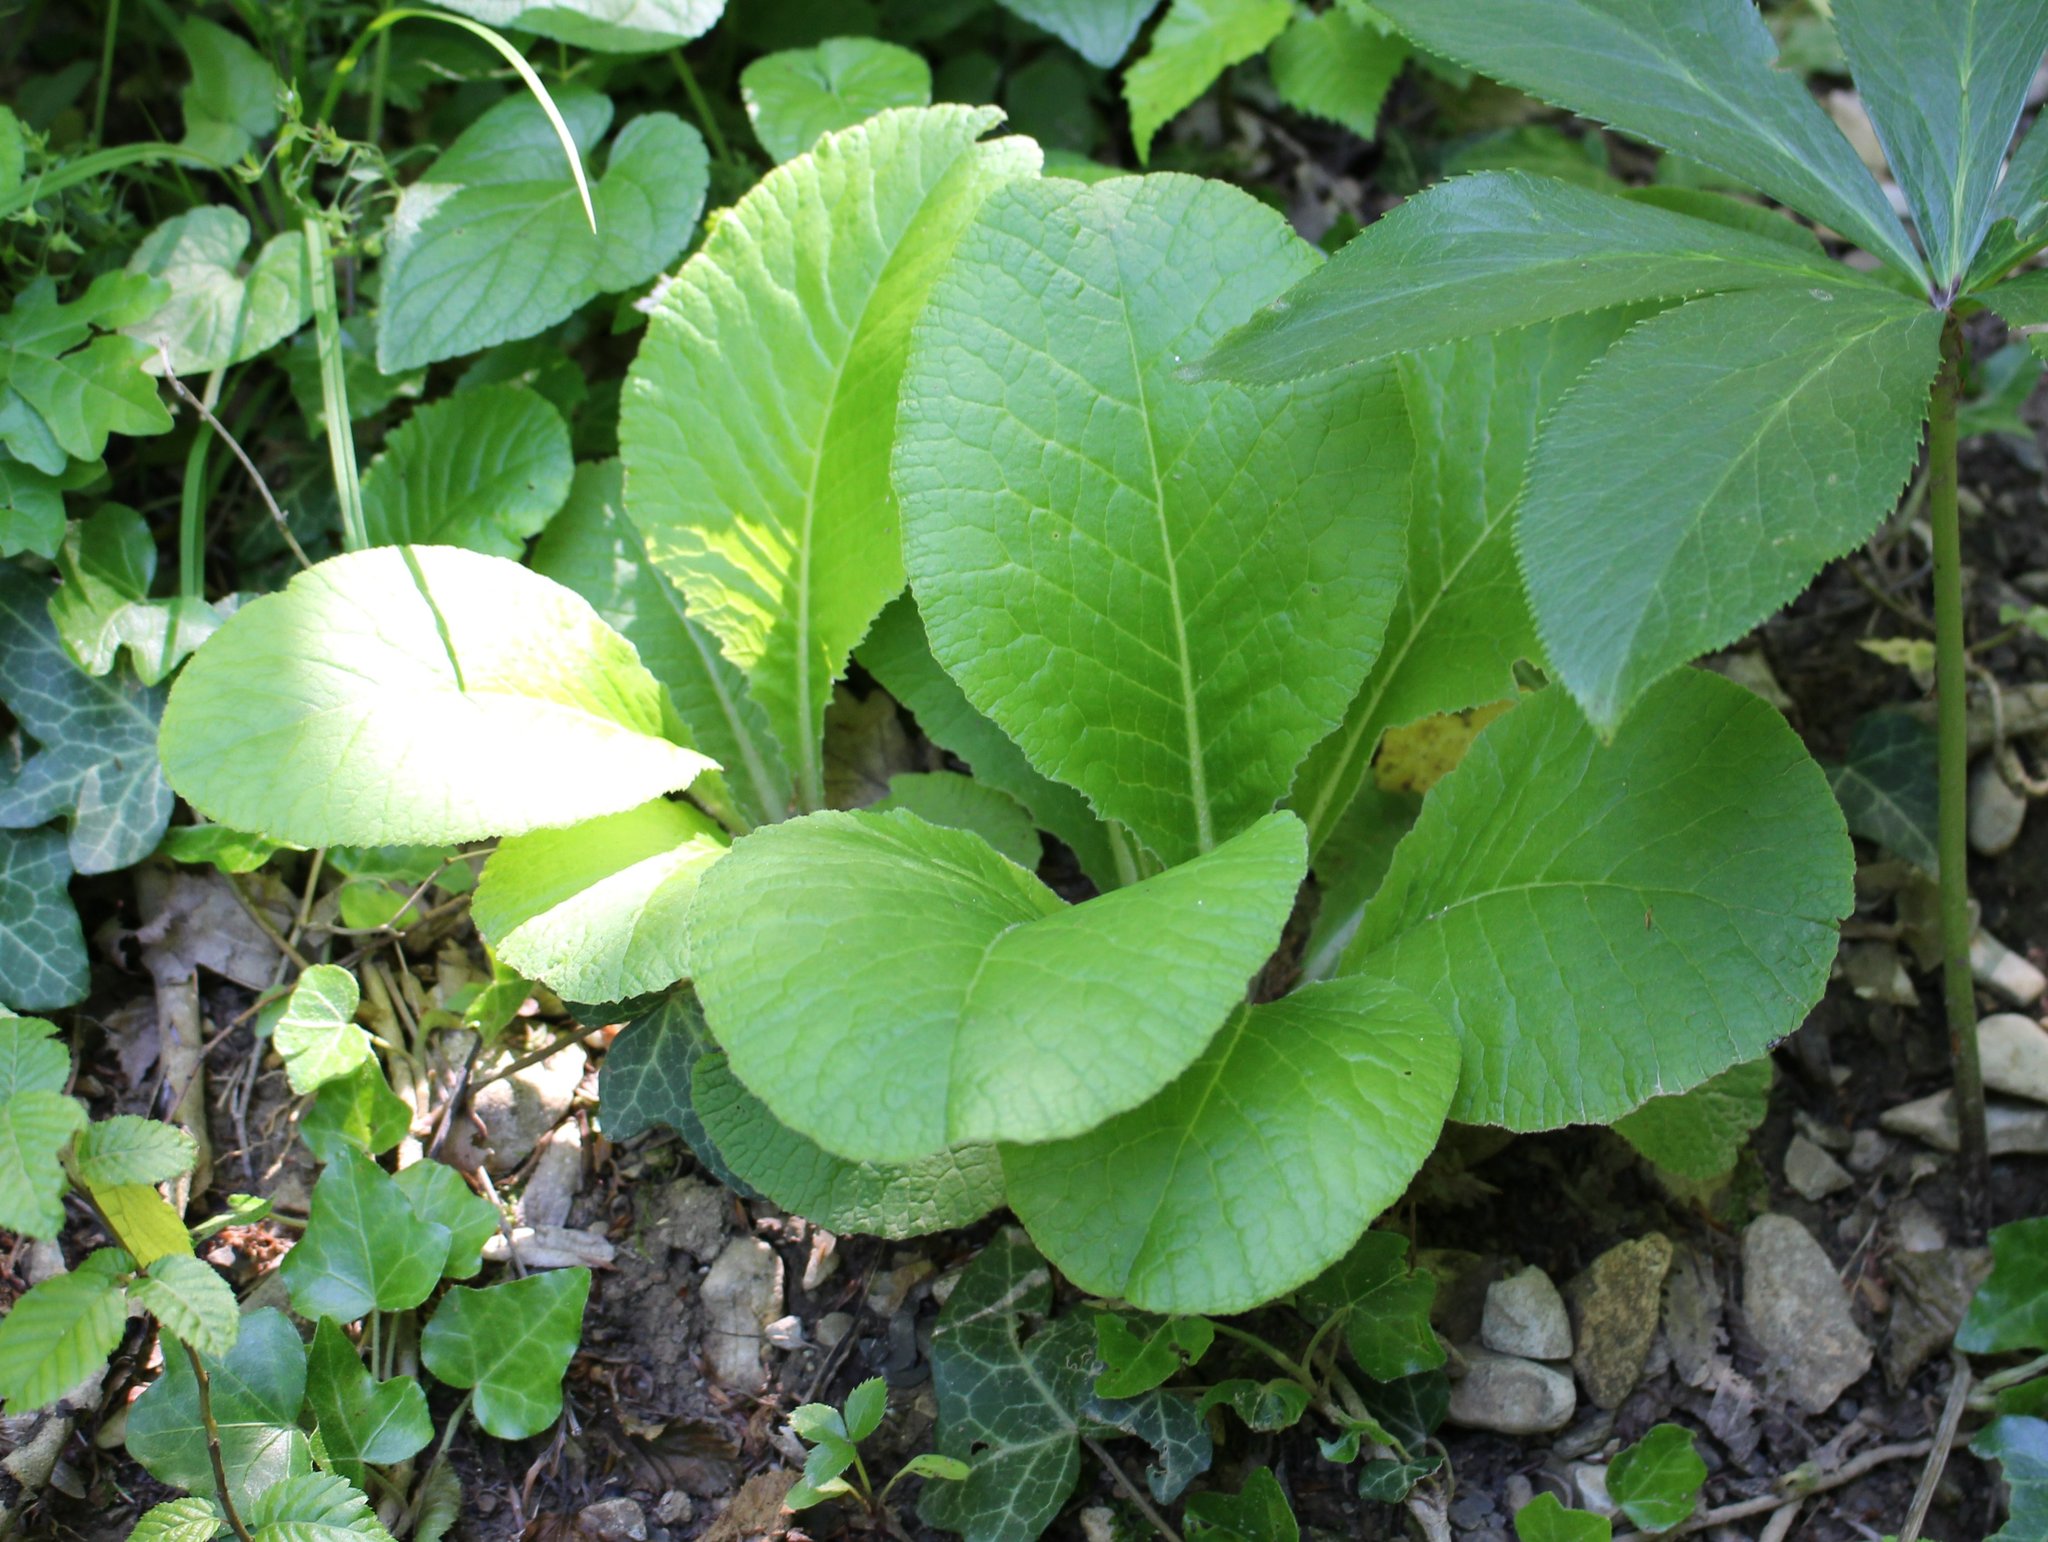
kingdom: Plantae
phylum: Tracheophyta
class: Magnoliopsida
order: Ericales
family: Primulaceae
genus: Primula
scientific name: Primula vulgaris
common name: Primrose
